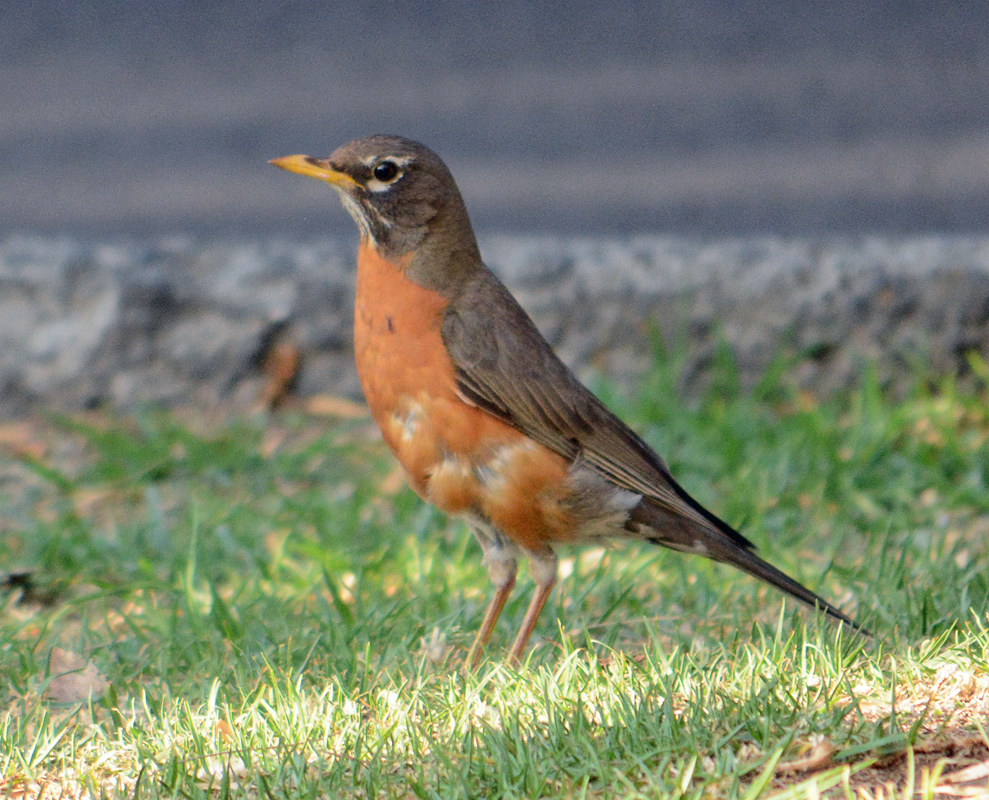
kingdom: Animalia
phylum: Chordata
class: Aves
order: Passeriformes
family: Turdidae
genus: Turdus
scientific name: Turdus migratorius
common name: American robin
